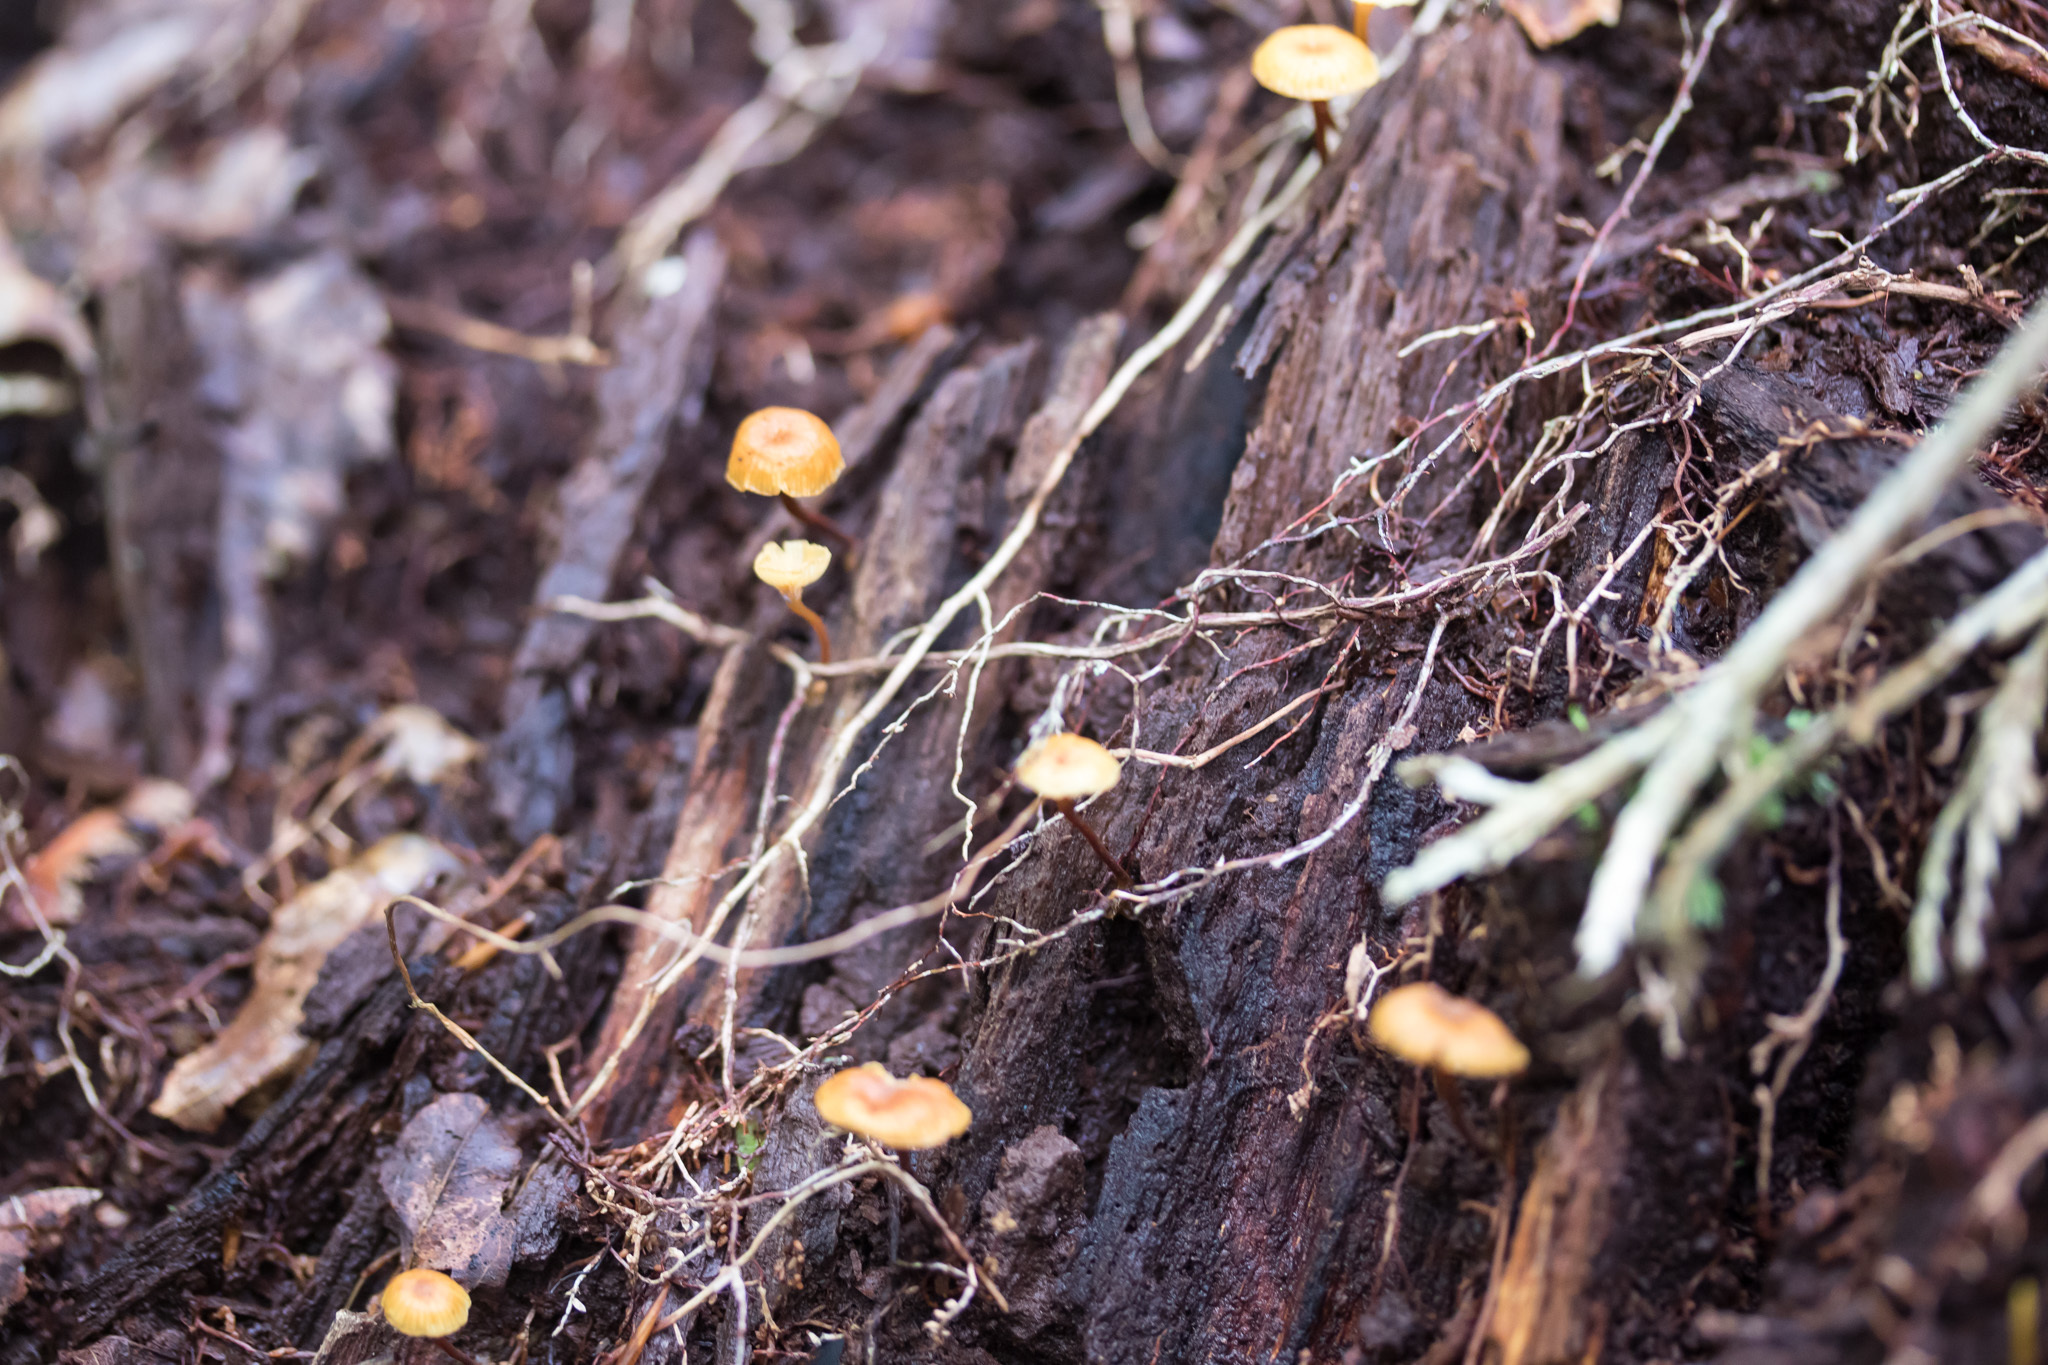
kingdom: Fungi
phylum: Basidiomycota
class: Agaricomycetes
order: Agaricales
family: Mycenaceae
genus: Xeromphalina
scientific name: Xeromphalina campanella
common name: Pinewood gingertail
